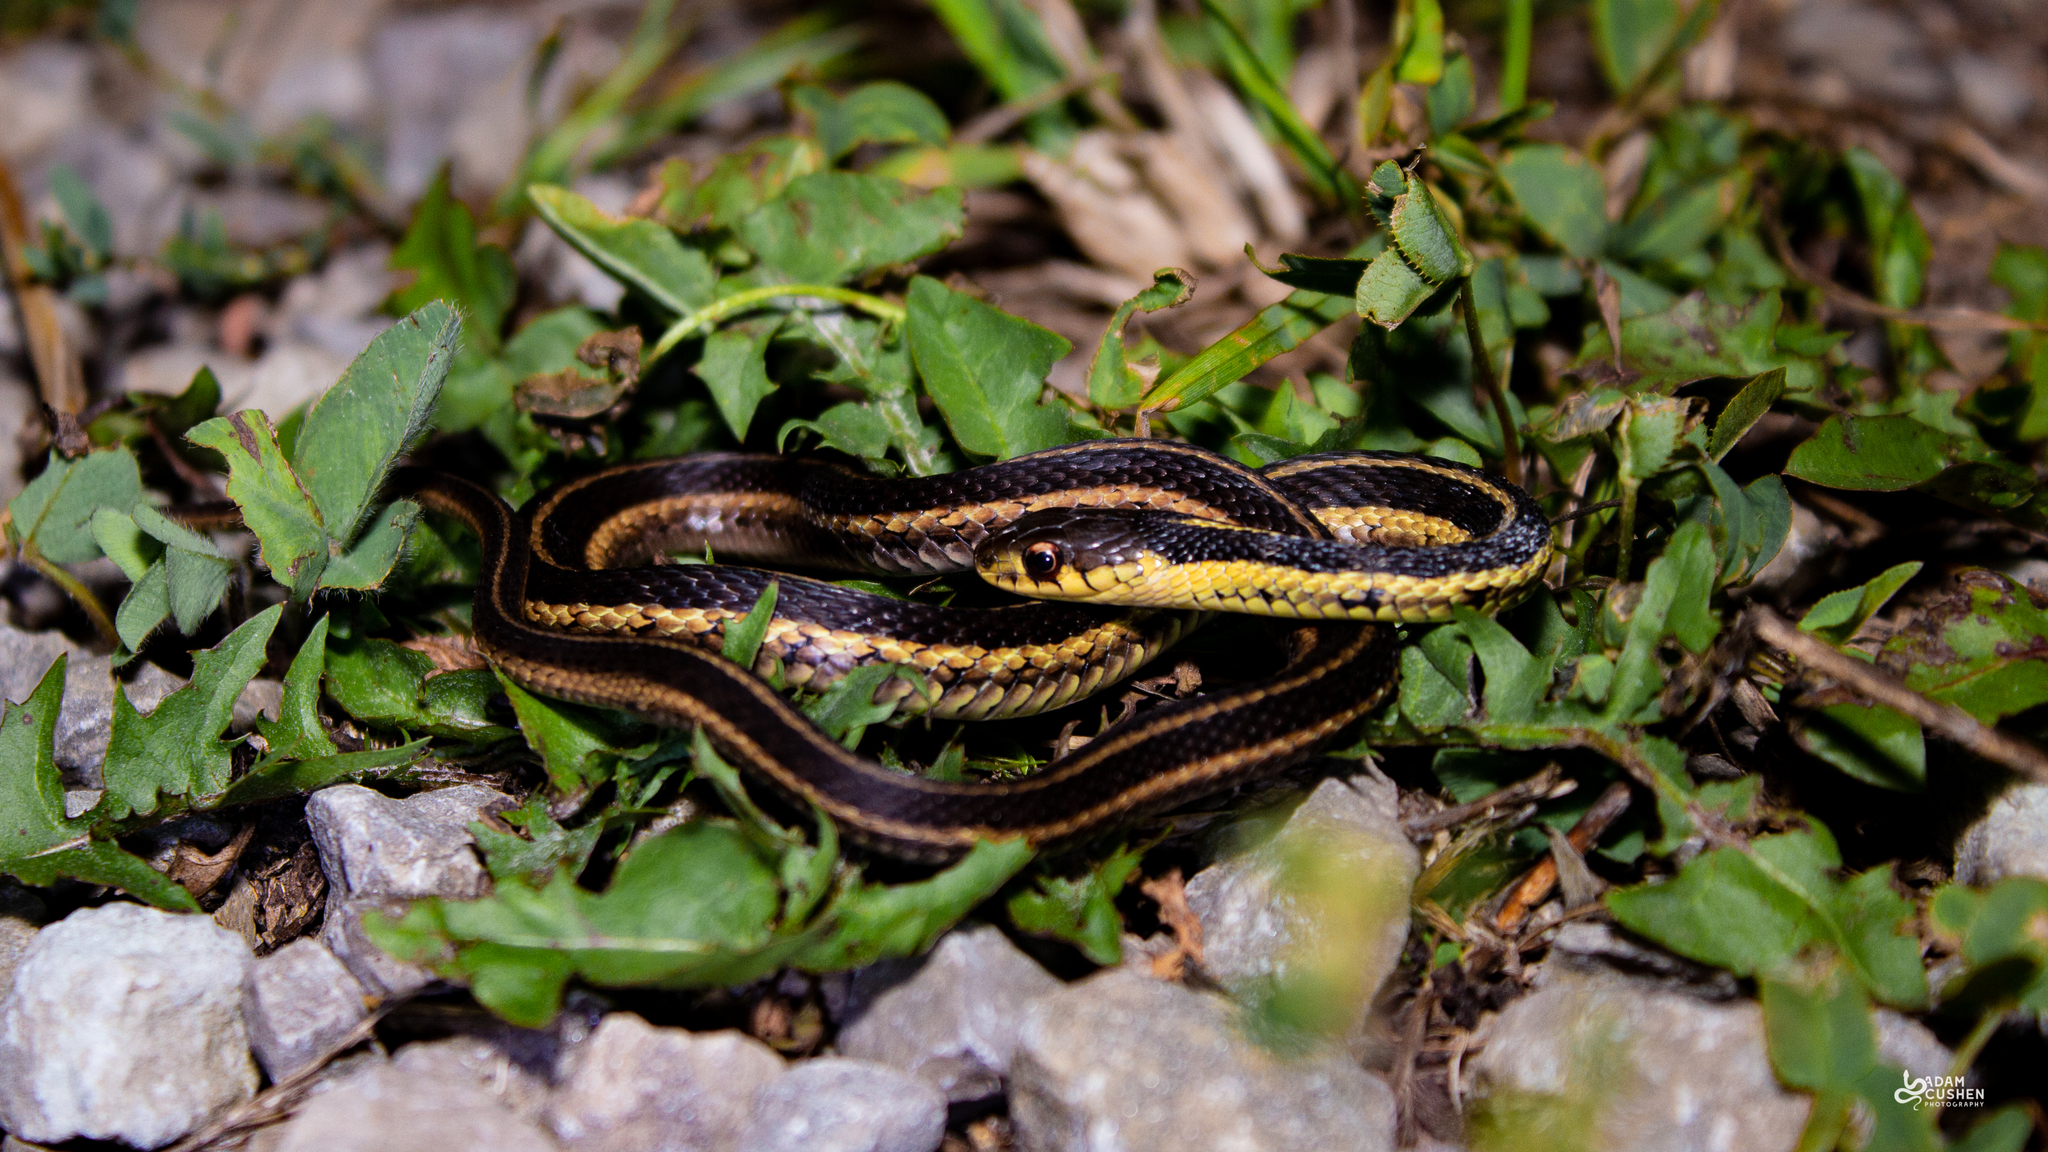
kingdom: Animalia
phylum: Chordata
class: Squamata
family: Colubridae
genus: Thamnophis
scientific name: Thamnophis sirtalis
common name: Common garter snake
